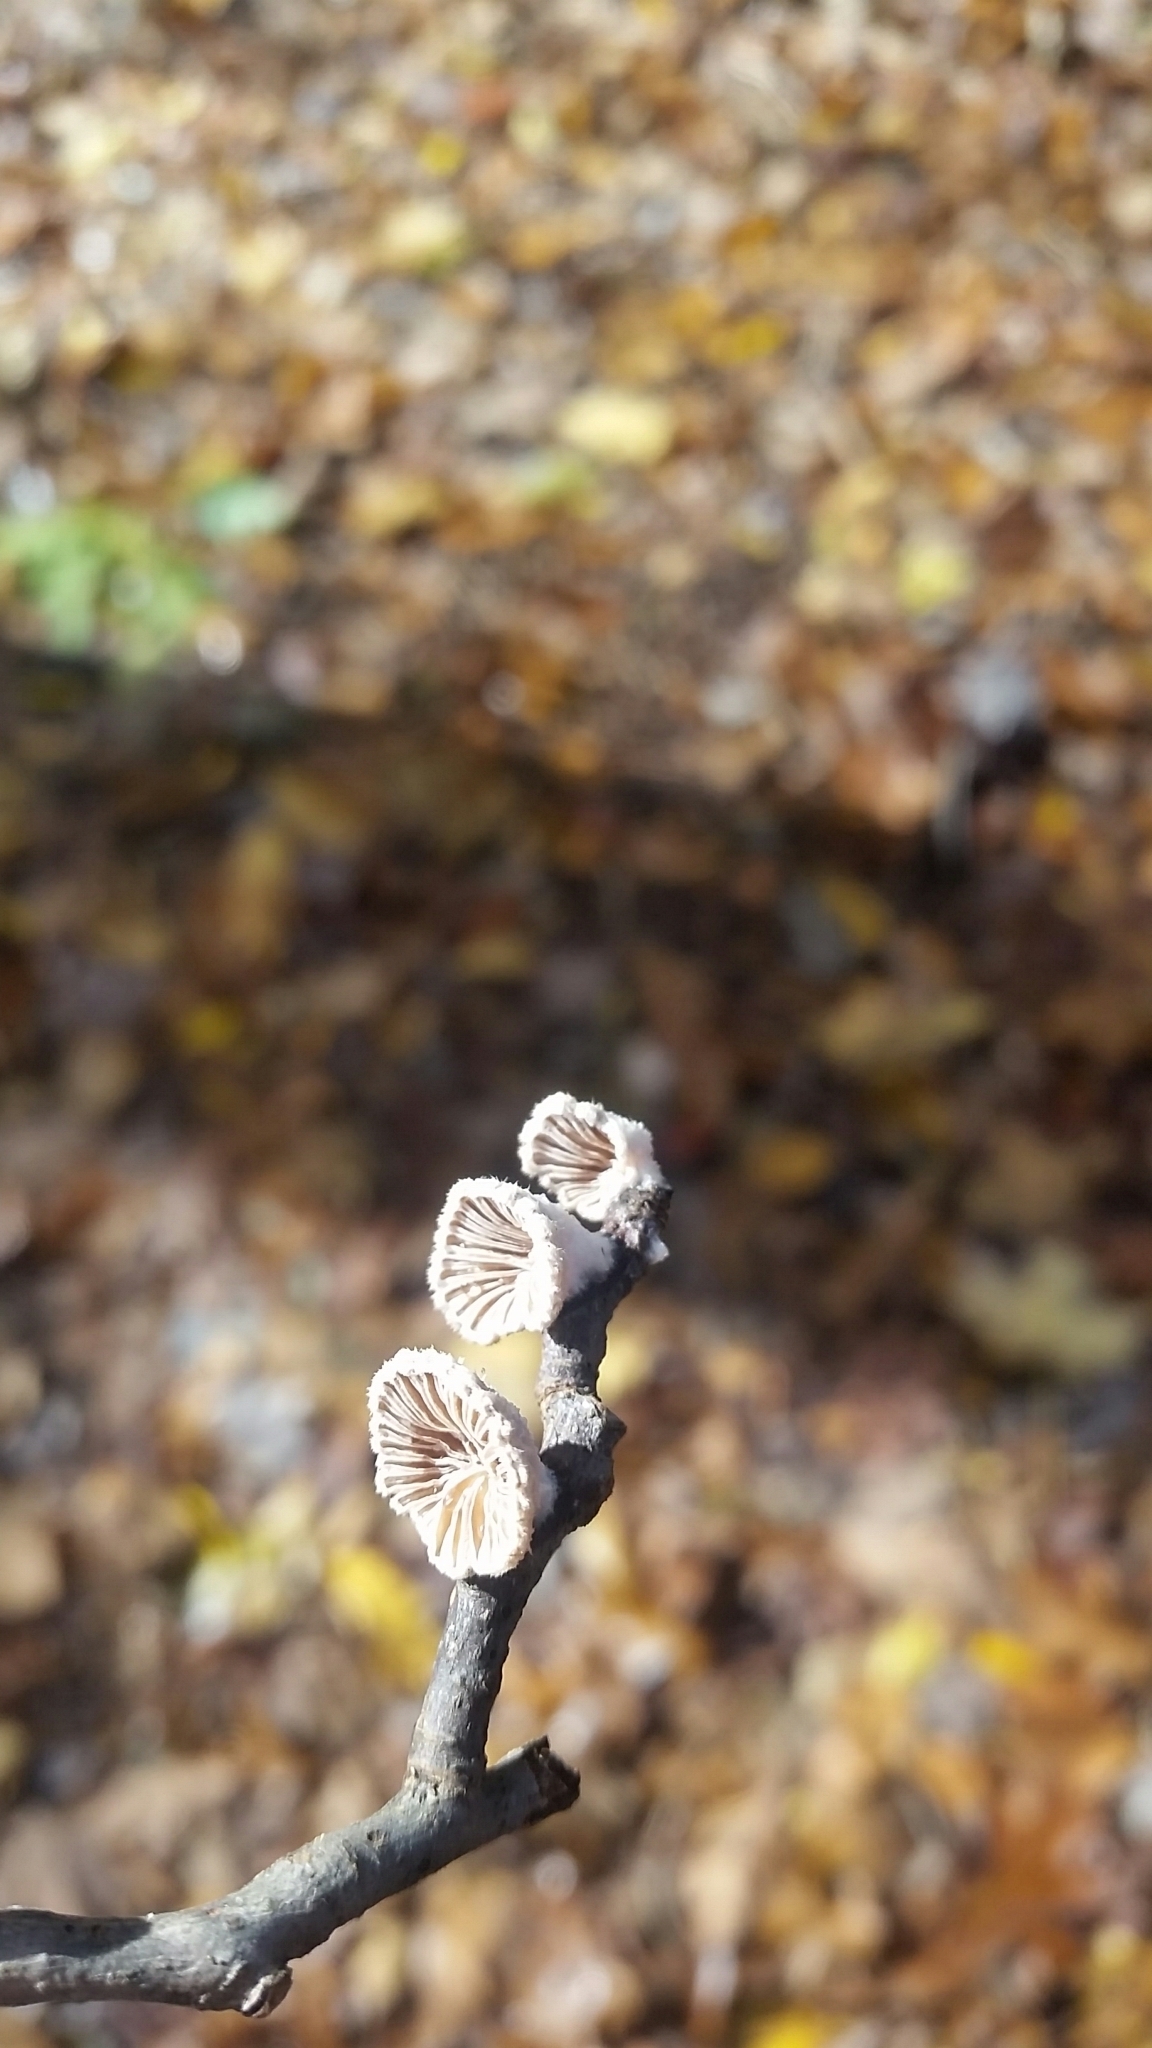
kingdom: Fungi
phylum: Basidiomycota
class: Agaricomycetes
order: Agaricales
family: Schizophyllaceae
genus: Schizophyllum
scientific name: Schizophyllum commune
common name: Common porecrust
